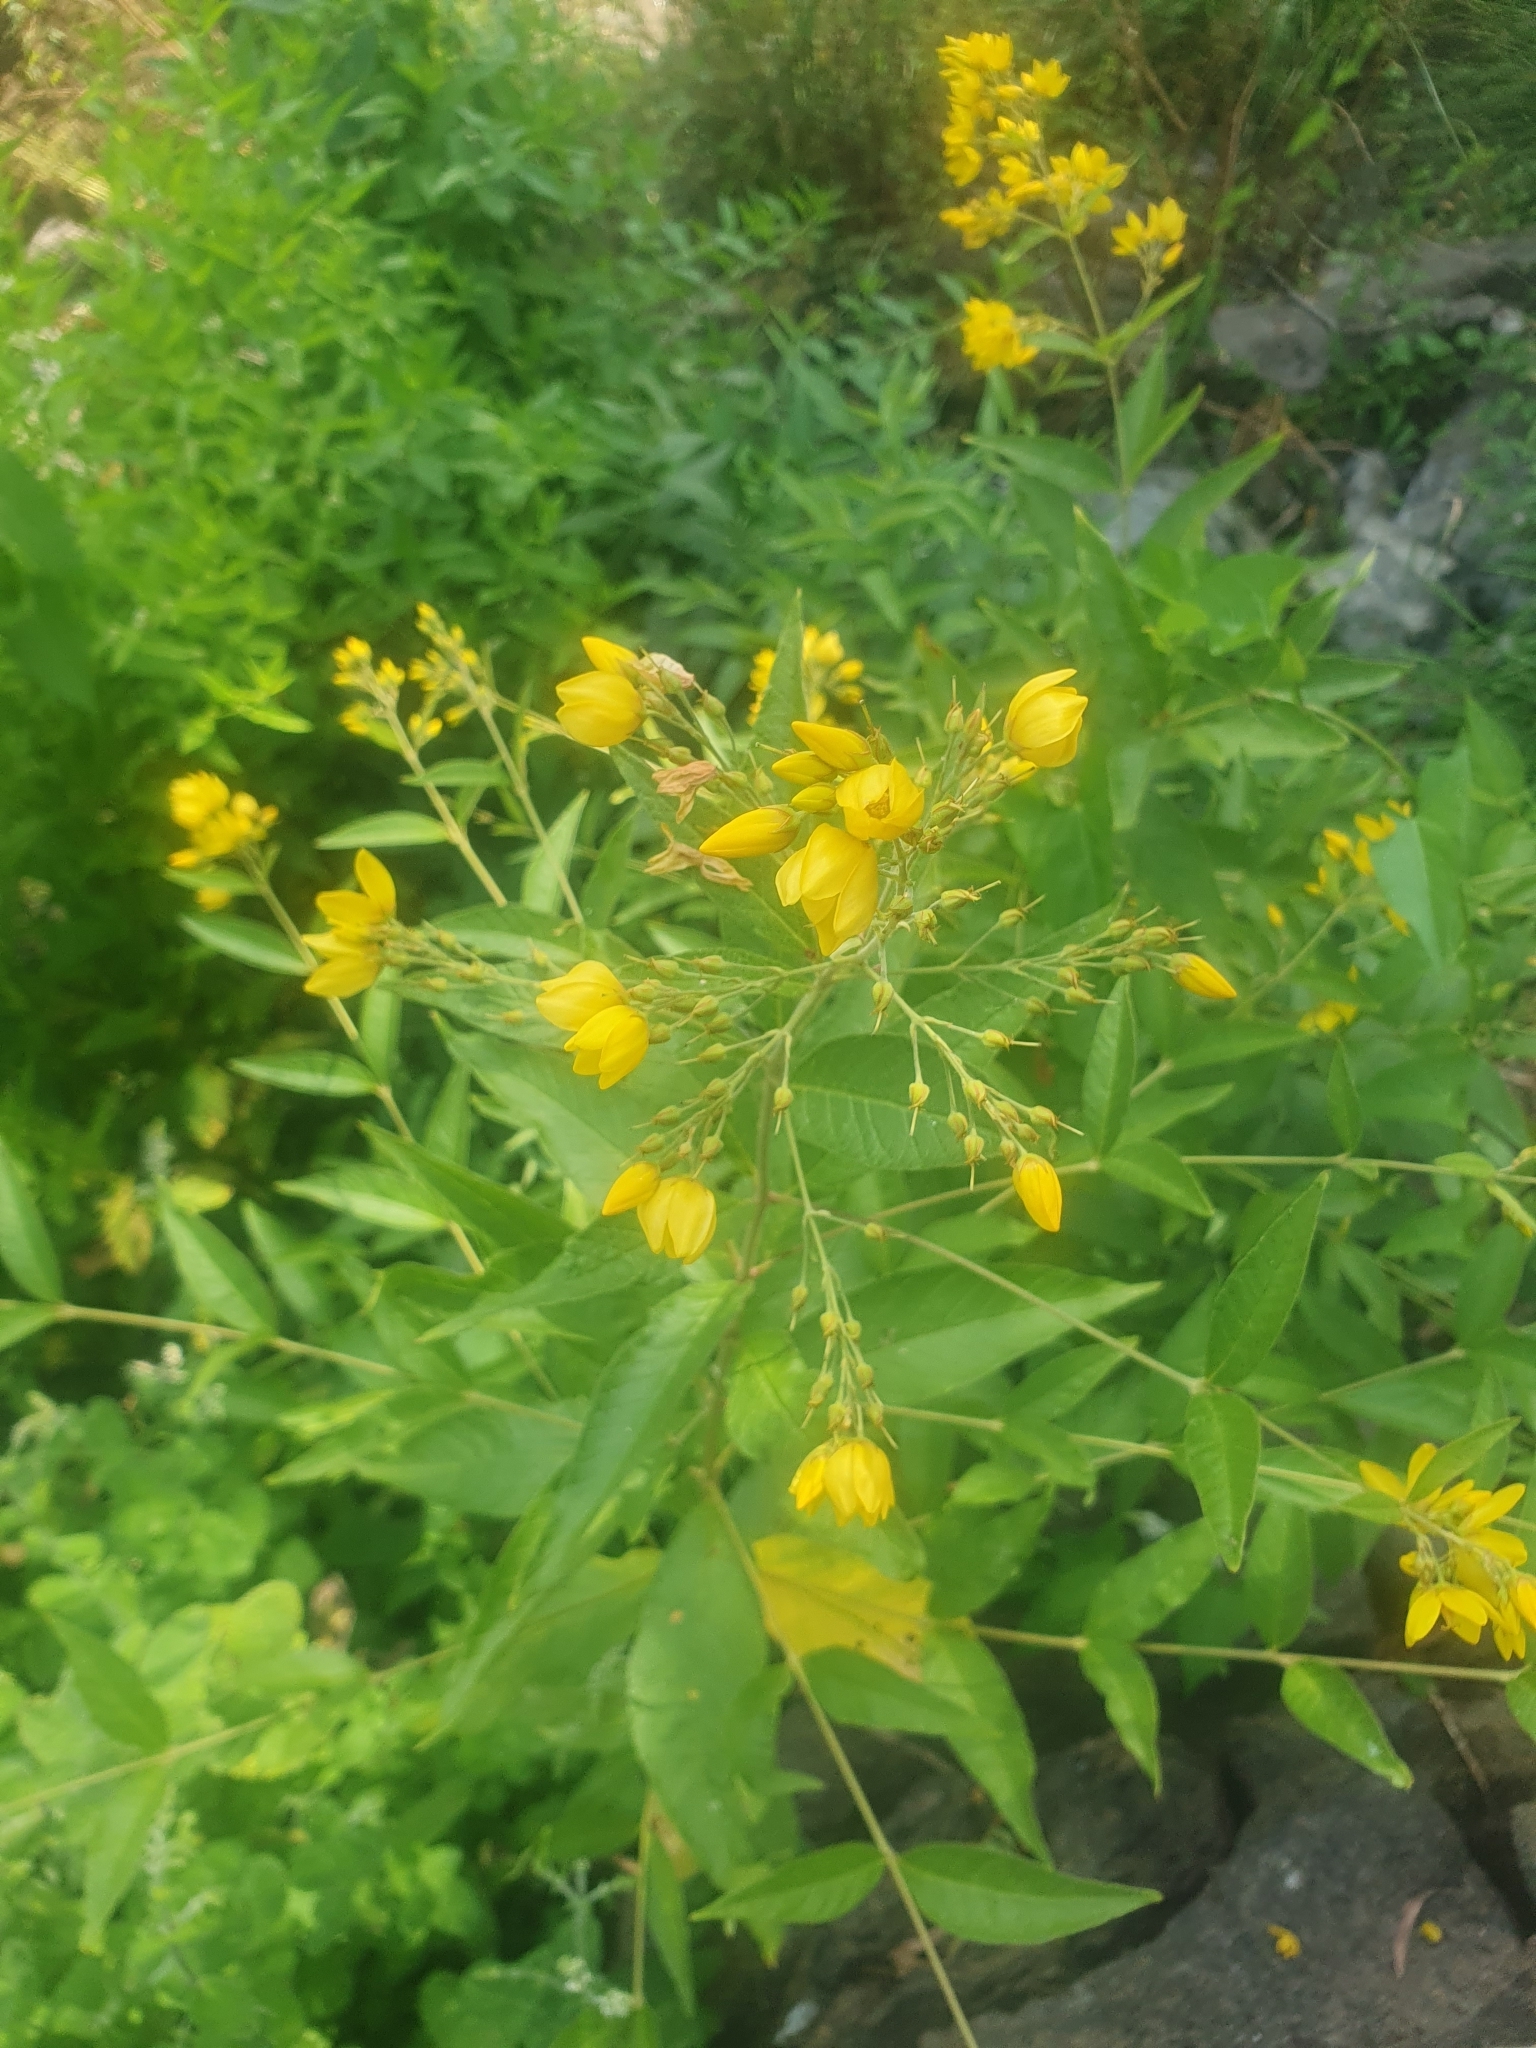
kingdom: Plantae
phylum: Tracheophyta
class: Magnoliopsida
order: Ericales
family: Primulaceae
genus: Lysimachia
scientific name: Lysimachia vulgaris
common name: Yellow loosestrife
